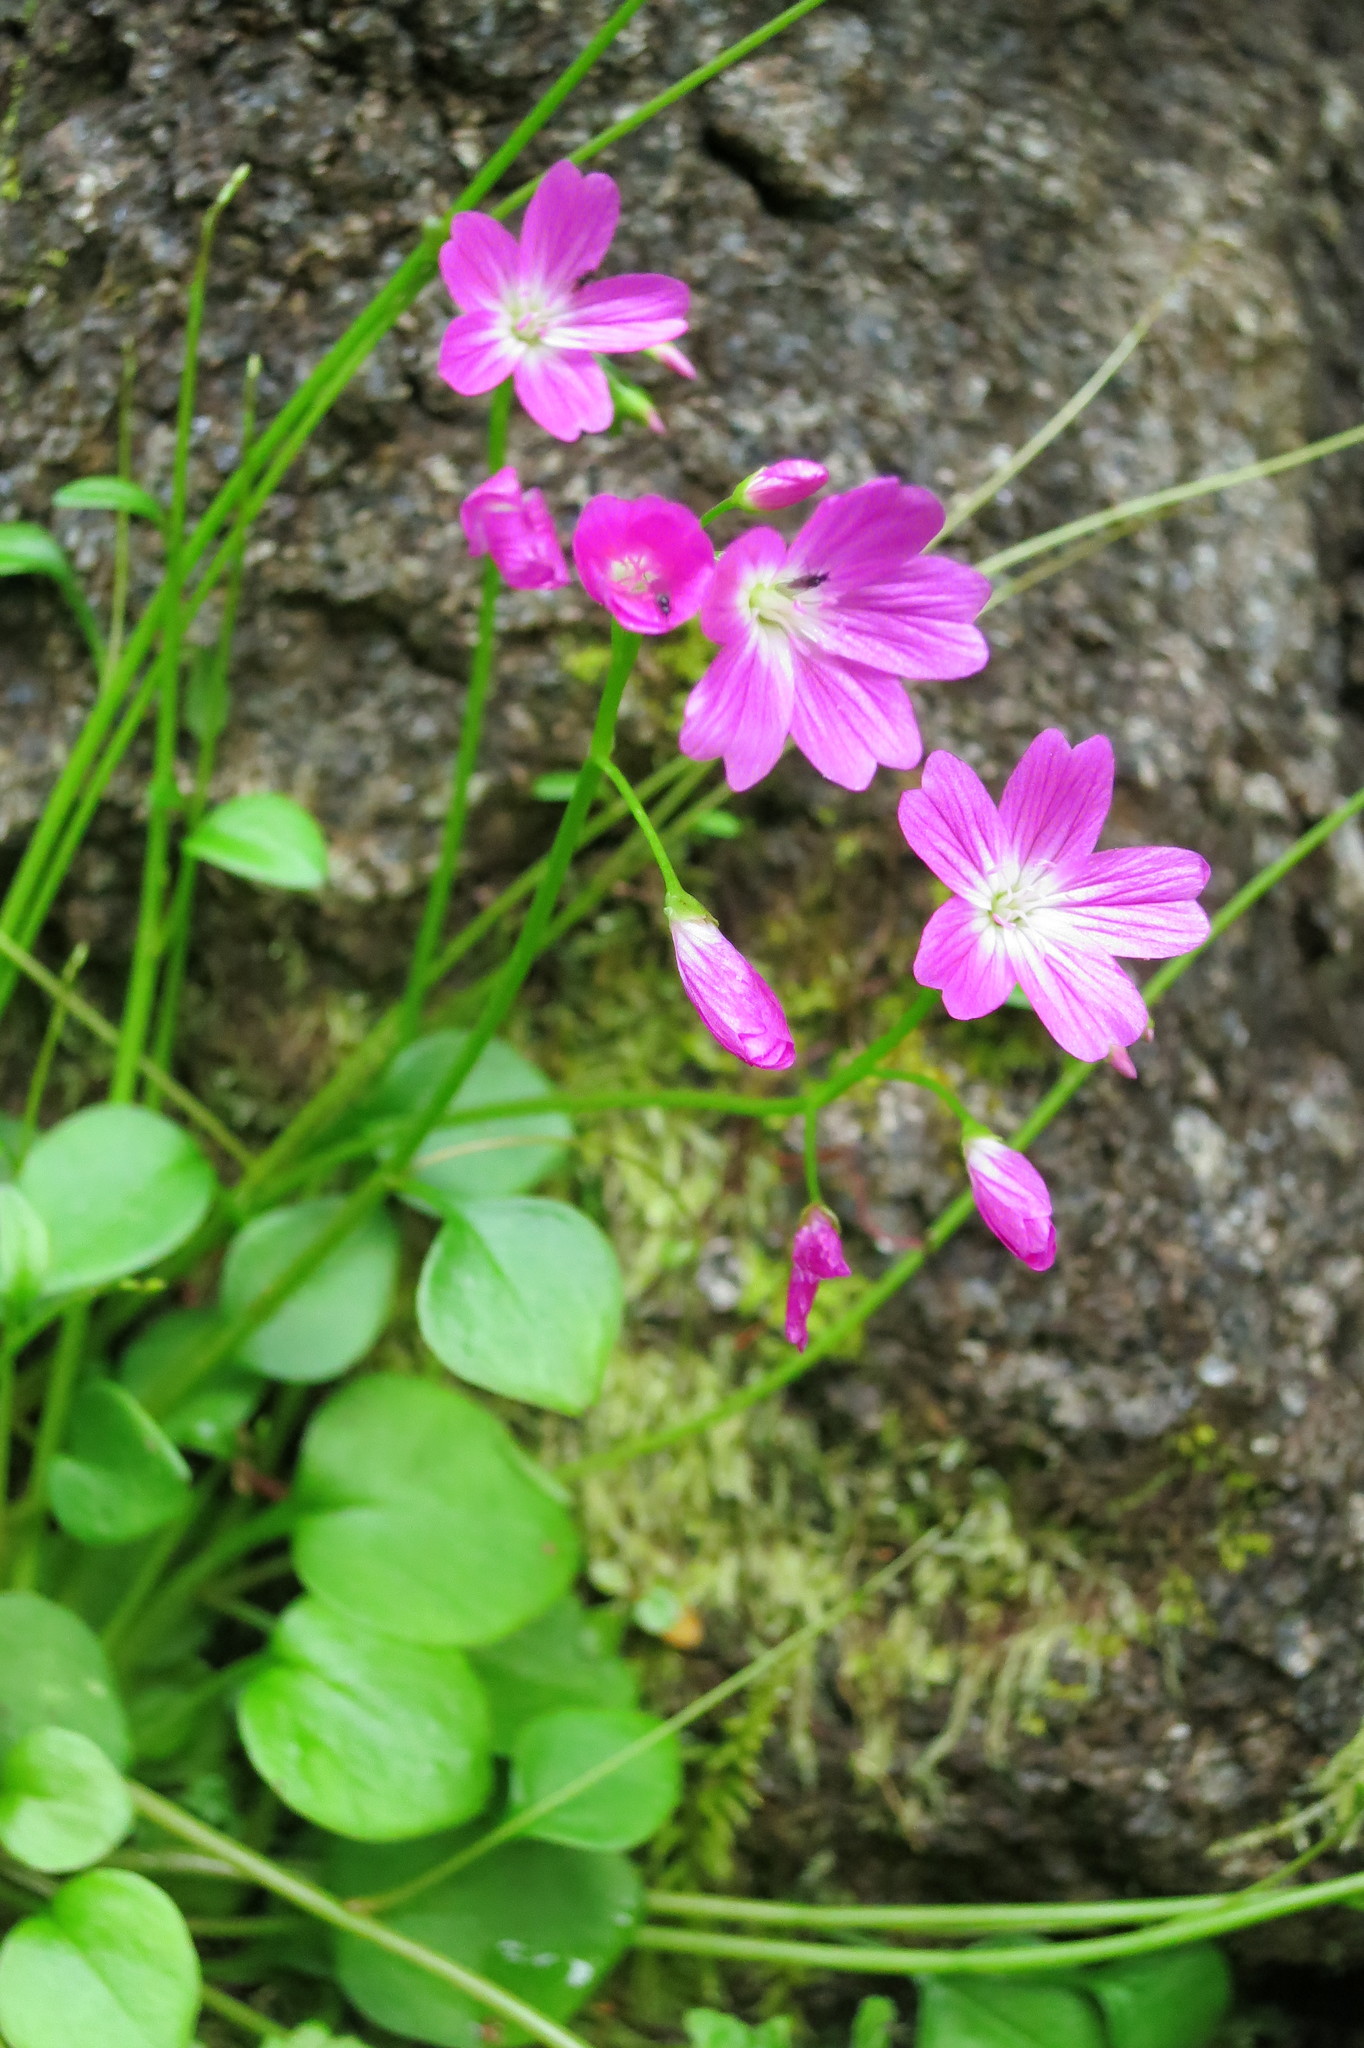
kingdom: Plantae
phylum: Tracheophyta
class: Magnoliopsida
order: Caryophyllales
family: Montiaceae
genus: Montia
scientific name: Montia parvifolia
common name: Small-leaved blinks
